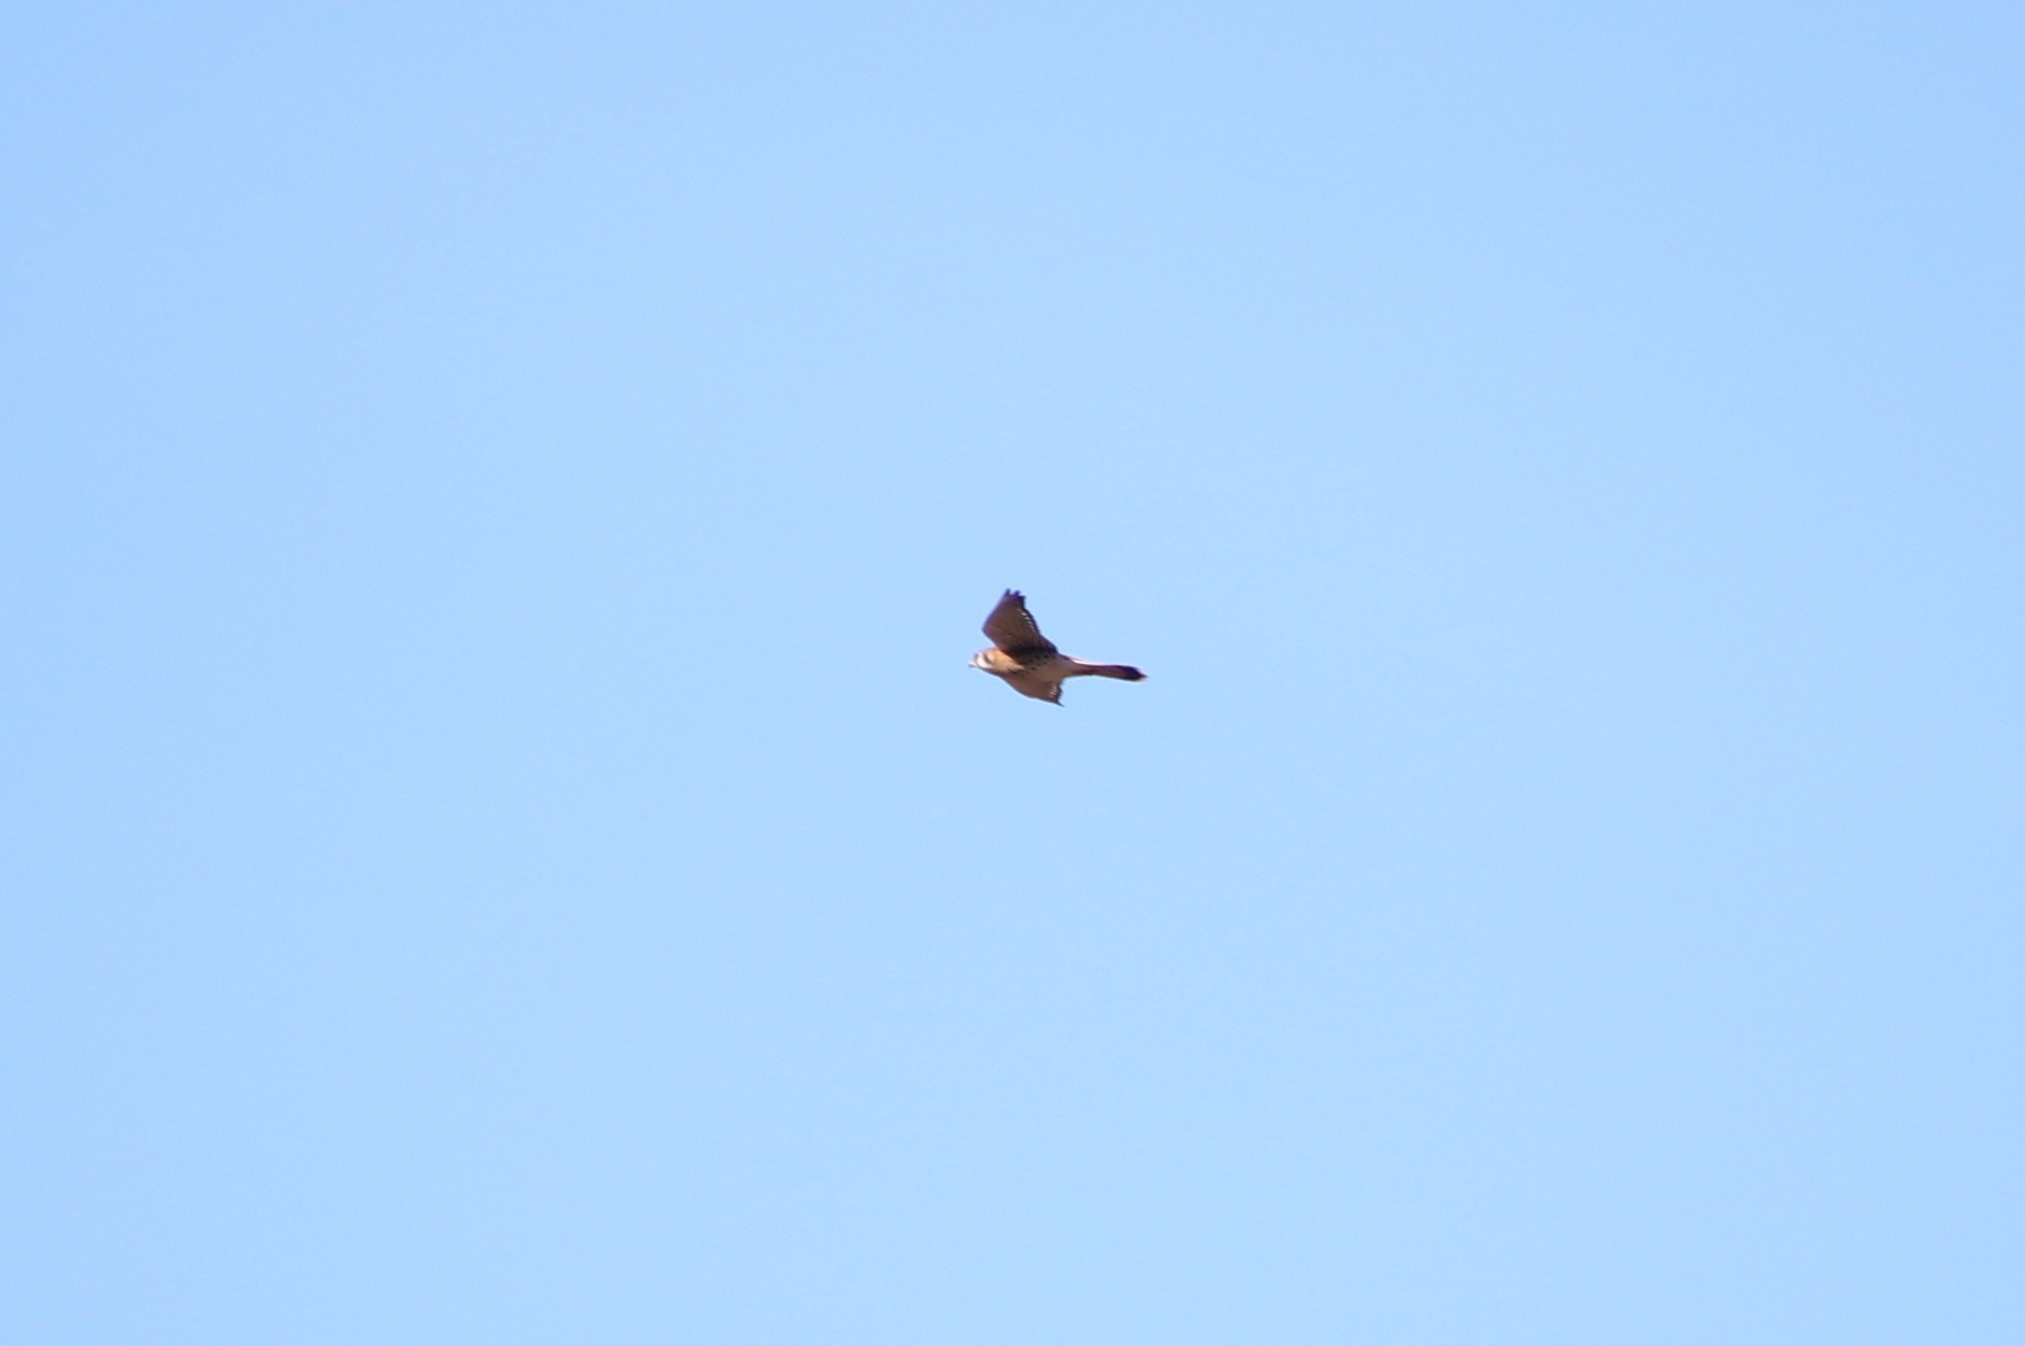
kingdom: Animalia
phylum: Chordata
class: Aves
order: Falconiformes
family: Falconidae
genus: Falco
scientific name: Falco sparverius
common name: American kestrel
